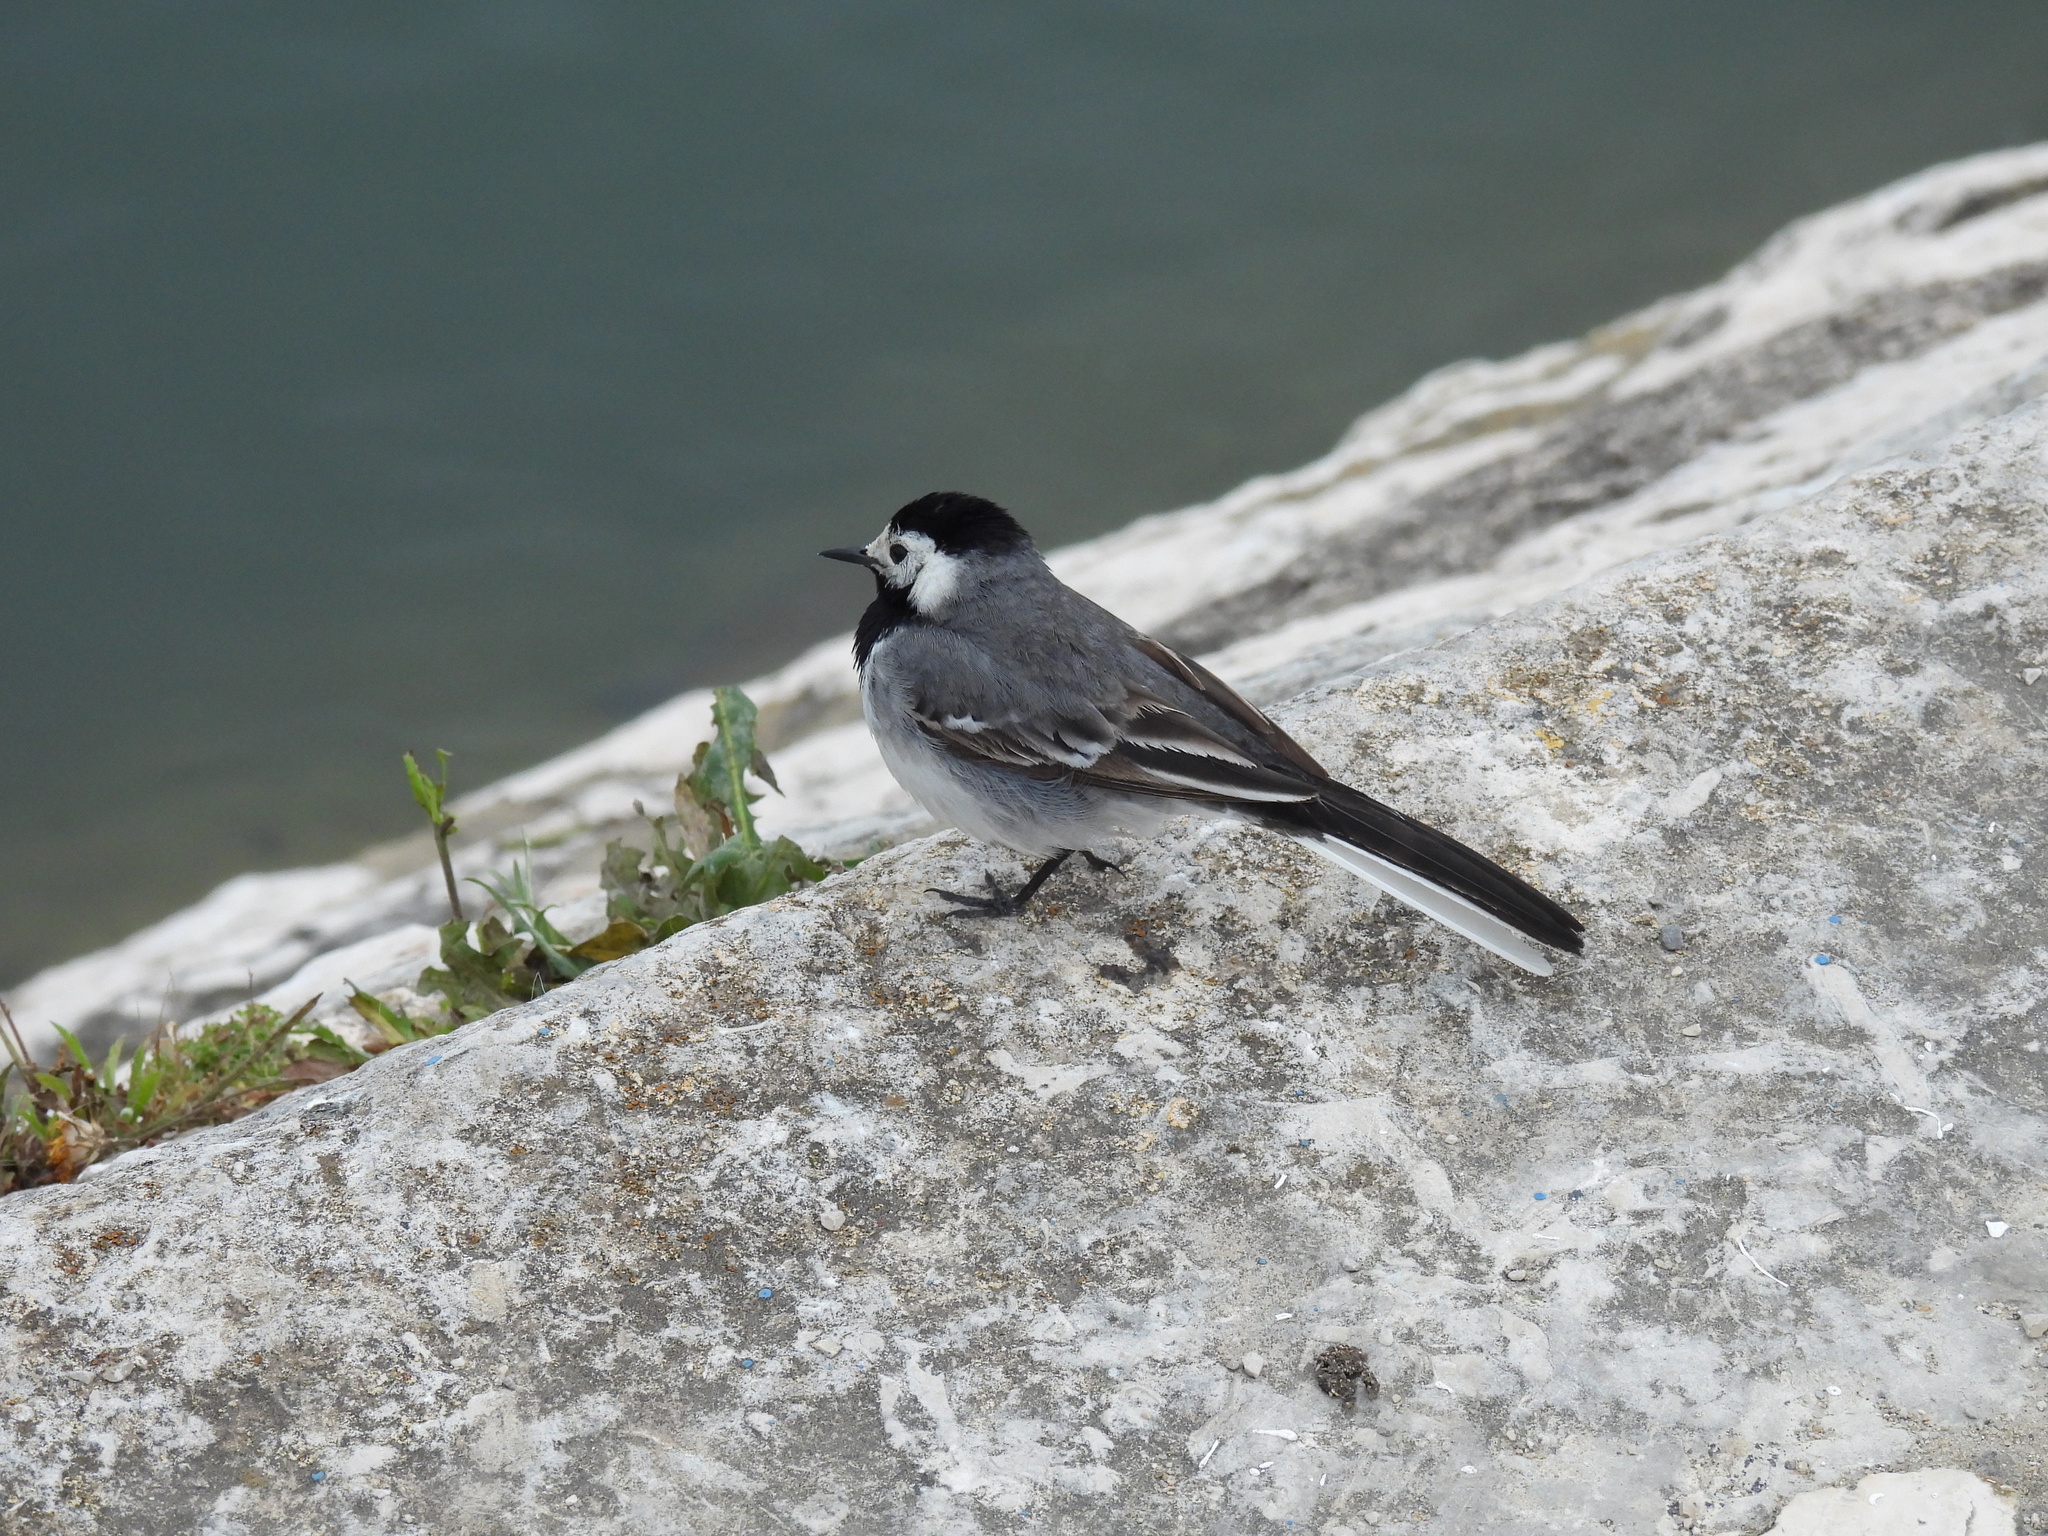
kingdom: Animalia
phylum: Chordata
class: Aves
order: Passeriformes
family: Motacillidae
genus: Motacilla
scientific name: Motacilla alba
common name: White wagtail
